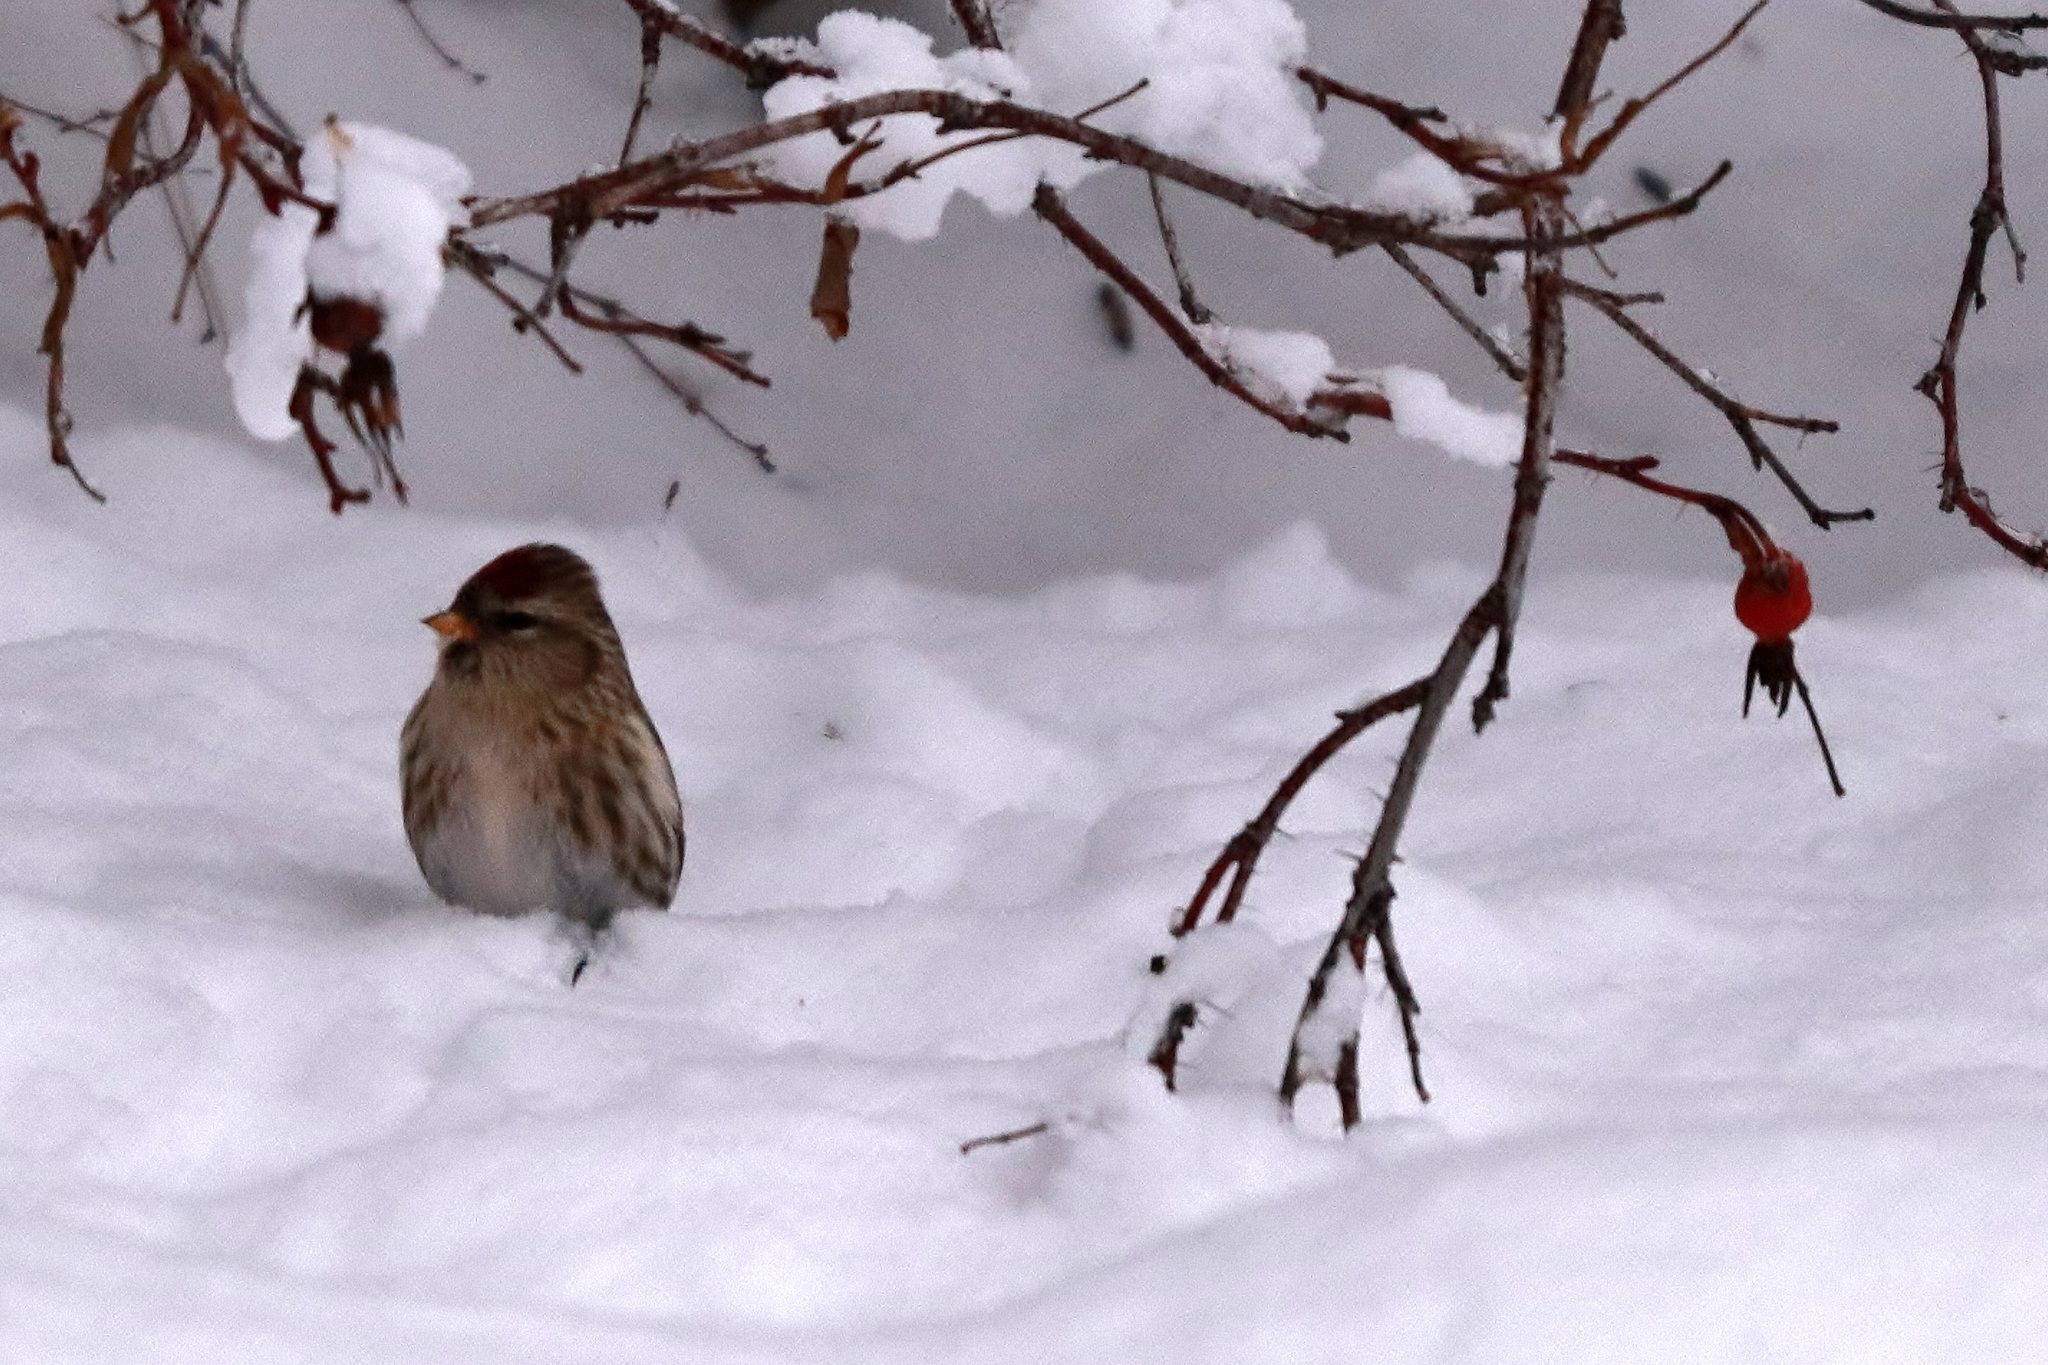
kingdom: Animalia
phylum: Chordata
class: Aves
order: Passeriformes
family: Fringillidae
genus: Acanthis
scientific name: Acanthis flammea
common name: Common redpoll
